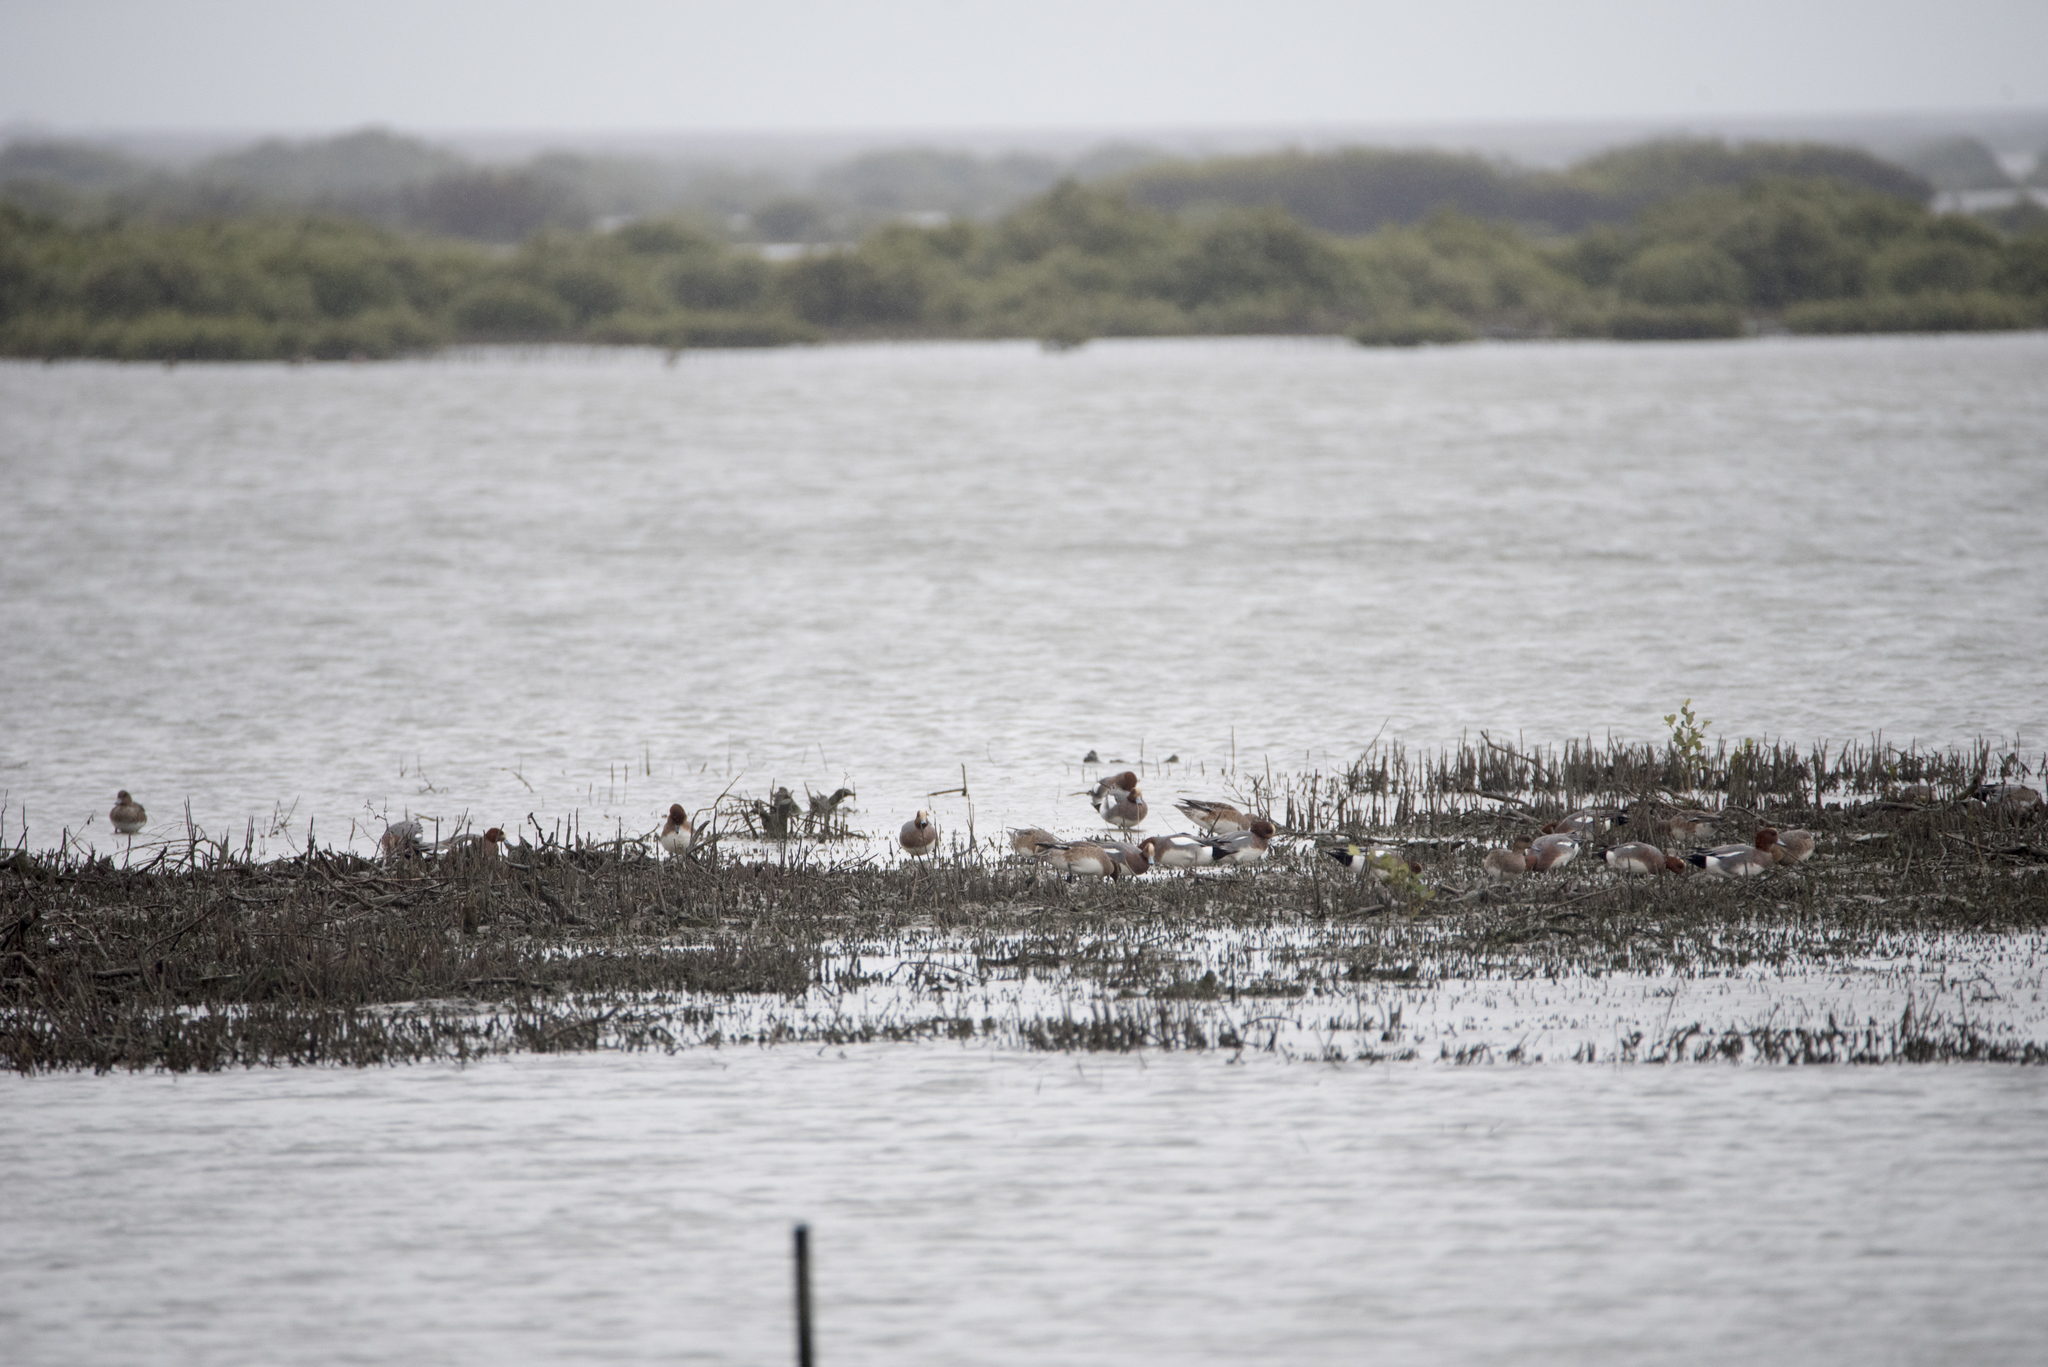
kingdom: Animalia
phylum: Chordata
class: Aves
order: Anseriformes
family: Anatidae
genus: Mareca
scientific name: Mareca penelope
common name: Eurasian wigeon
